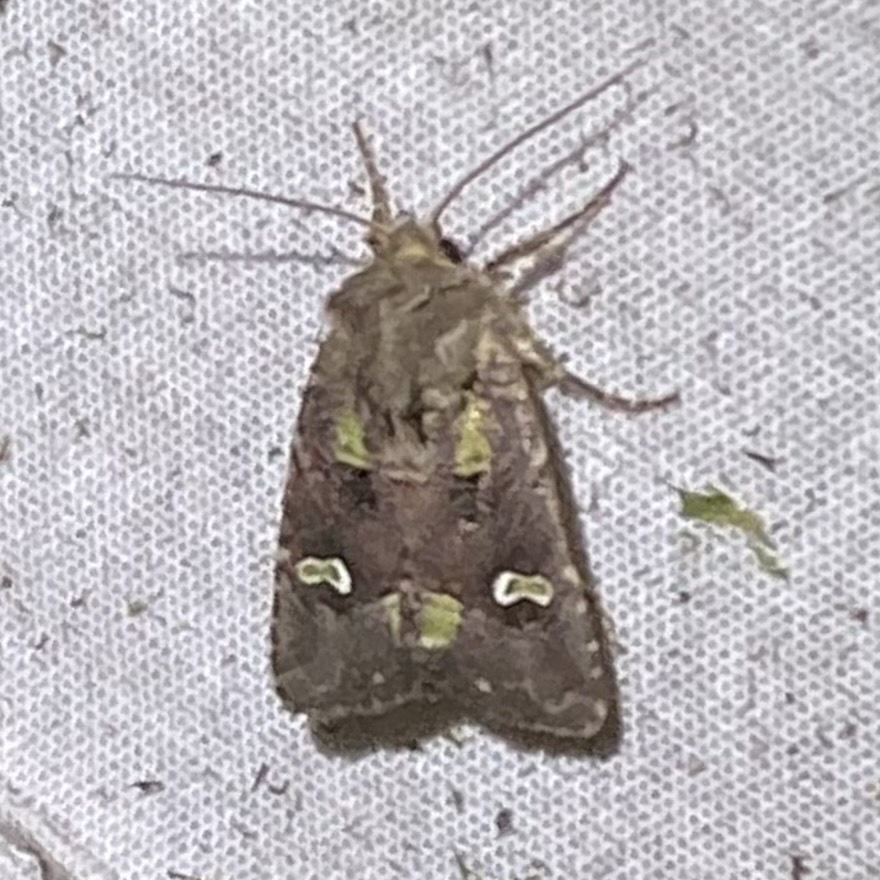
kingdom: Animalia
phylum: Arthropoda
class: Insecta
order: Lepidoptera
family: Noctuidae
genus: Lacinipolia
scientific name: Lacinipolia renigera
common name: Kidney-spotted minor
